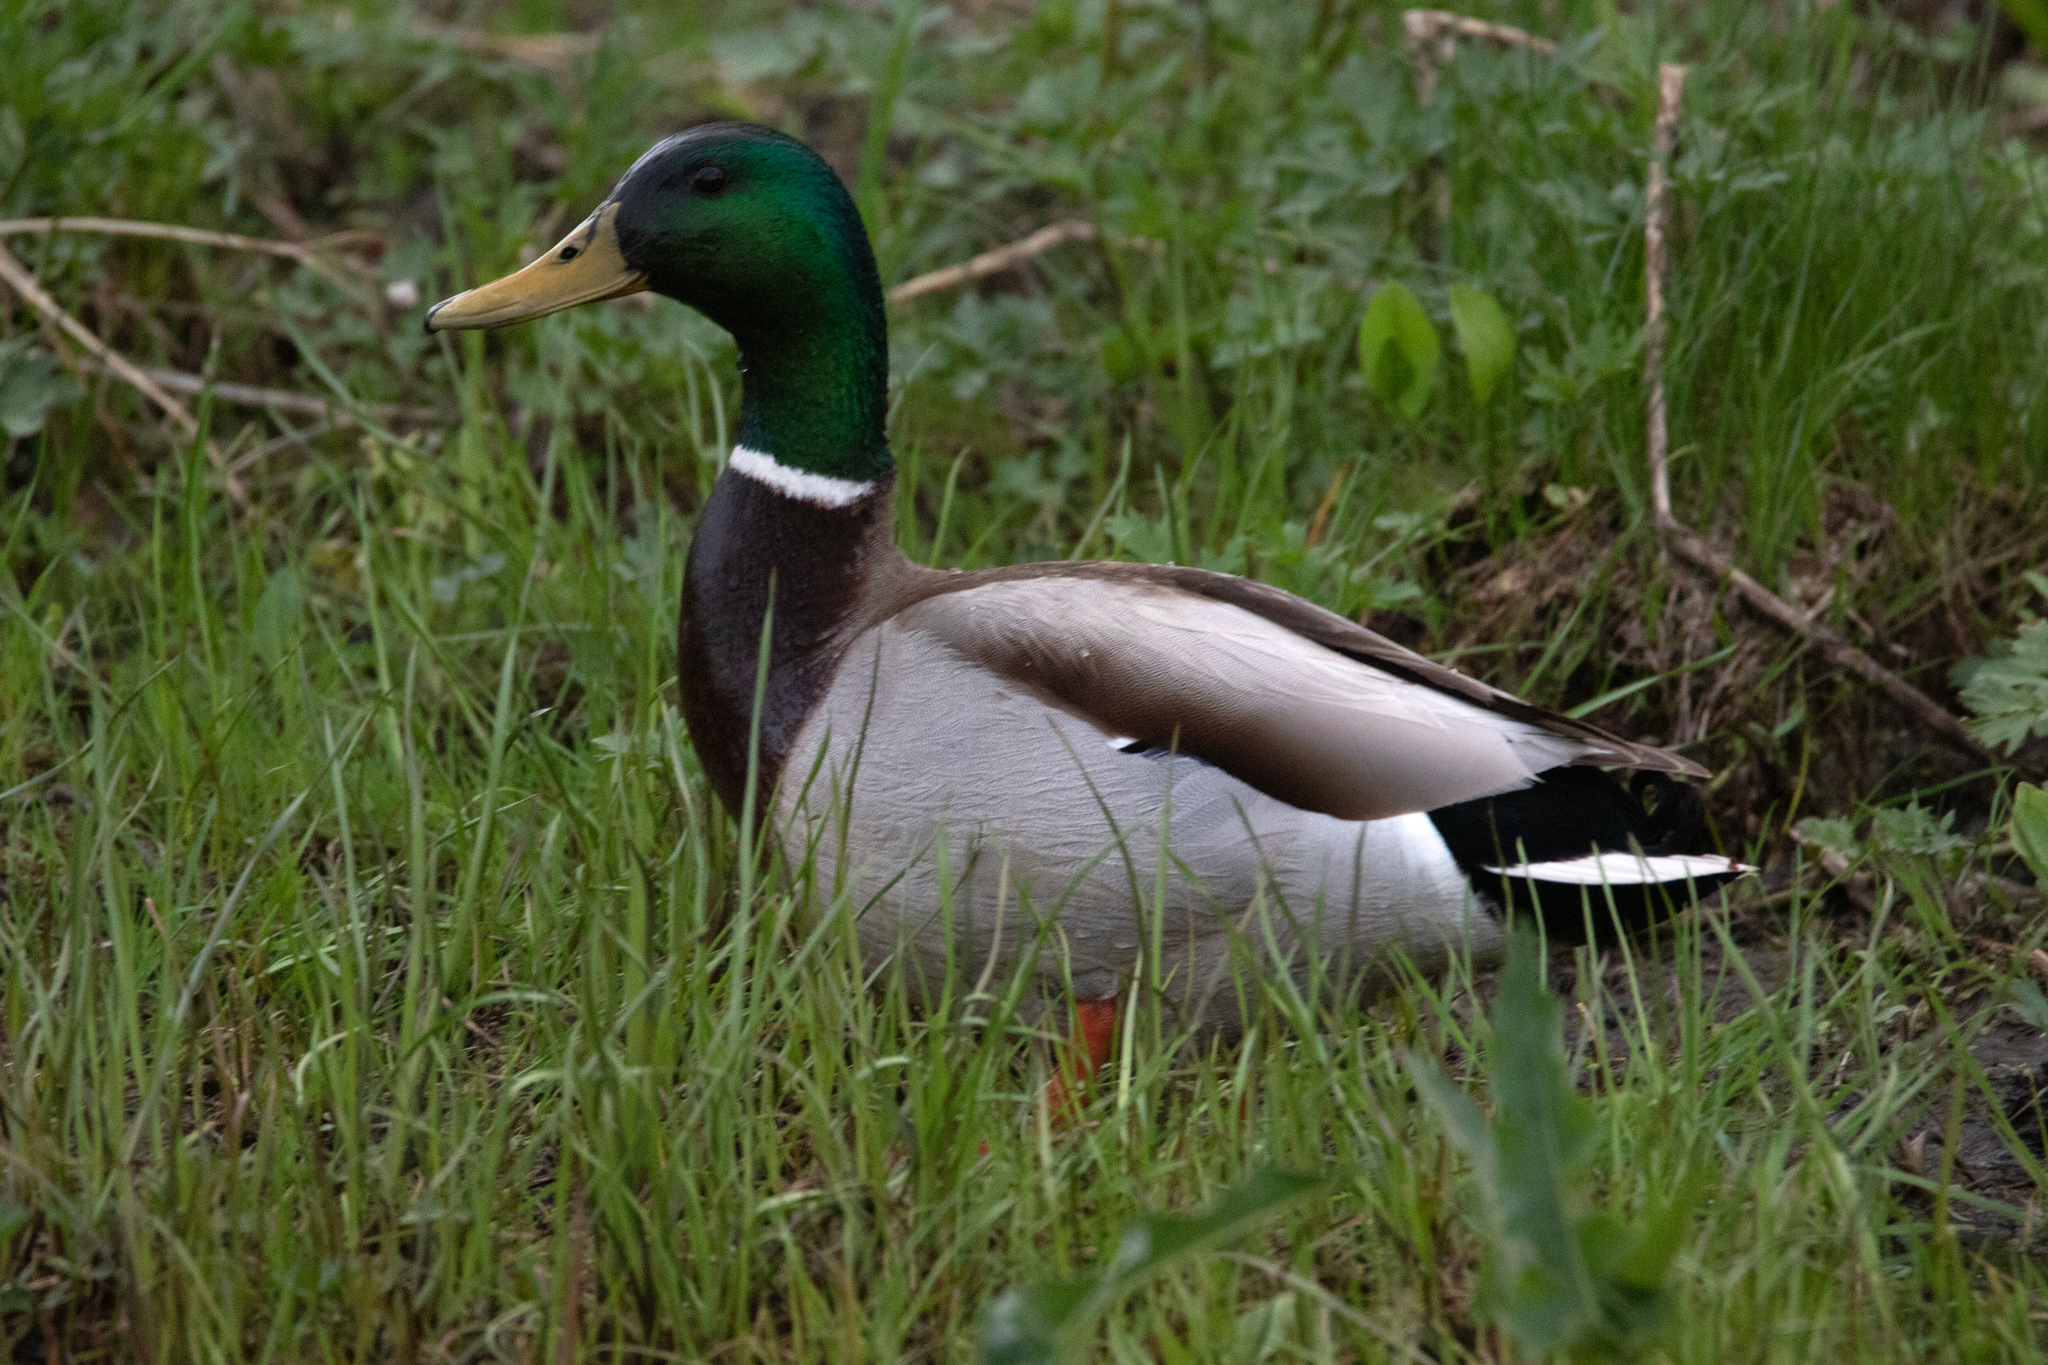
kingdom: Animalia
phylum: Chordata
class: Aves
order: Anseriformes
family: Anatidae
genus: Anas
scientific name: Anas platyrhynchos
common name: Mallard
